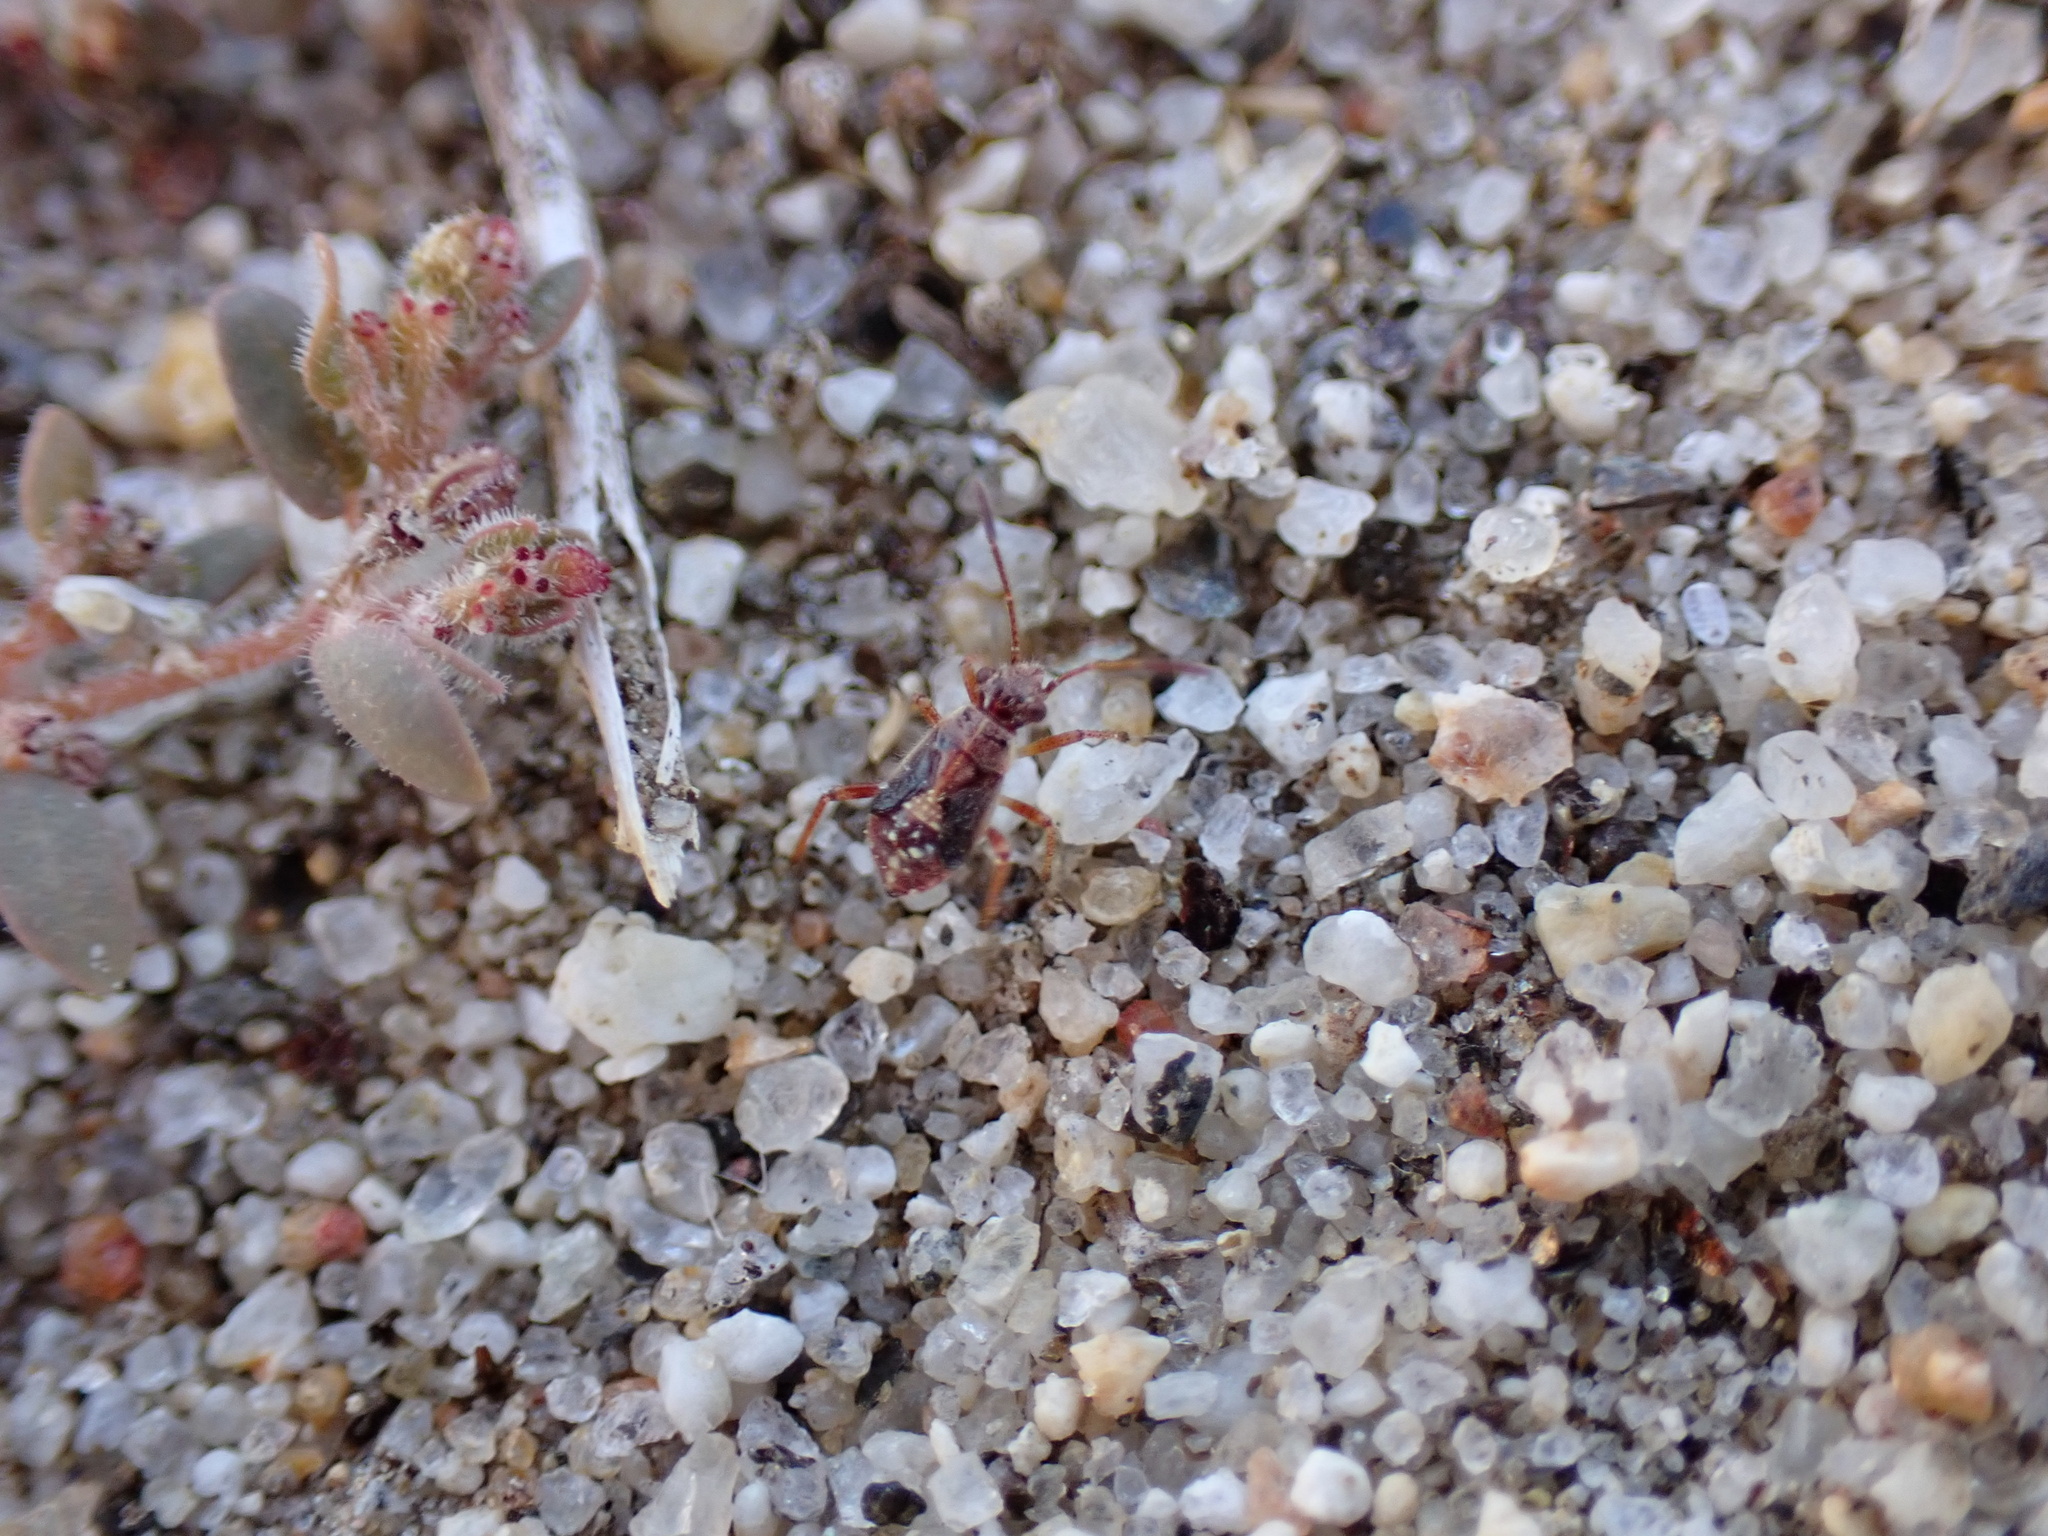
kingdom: Animalia
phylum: Arthropoda
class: Insecta
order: Hemiptera
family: Rhopalidae
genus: Liorhyssus
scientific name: Liorhyssus hyalinus
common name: Scentless plant bug
